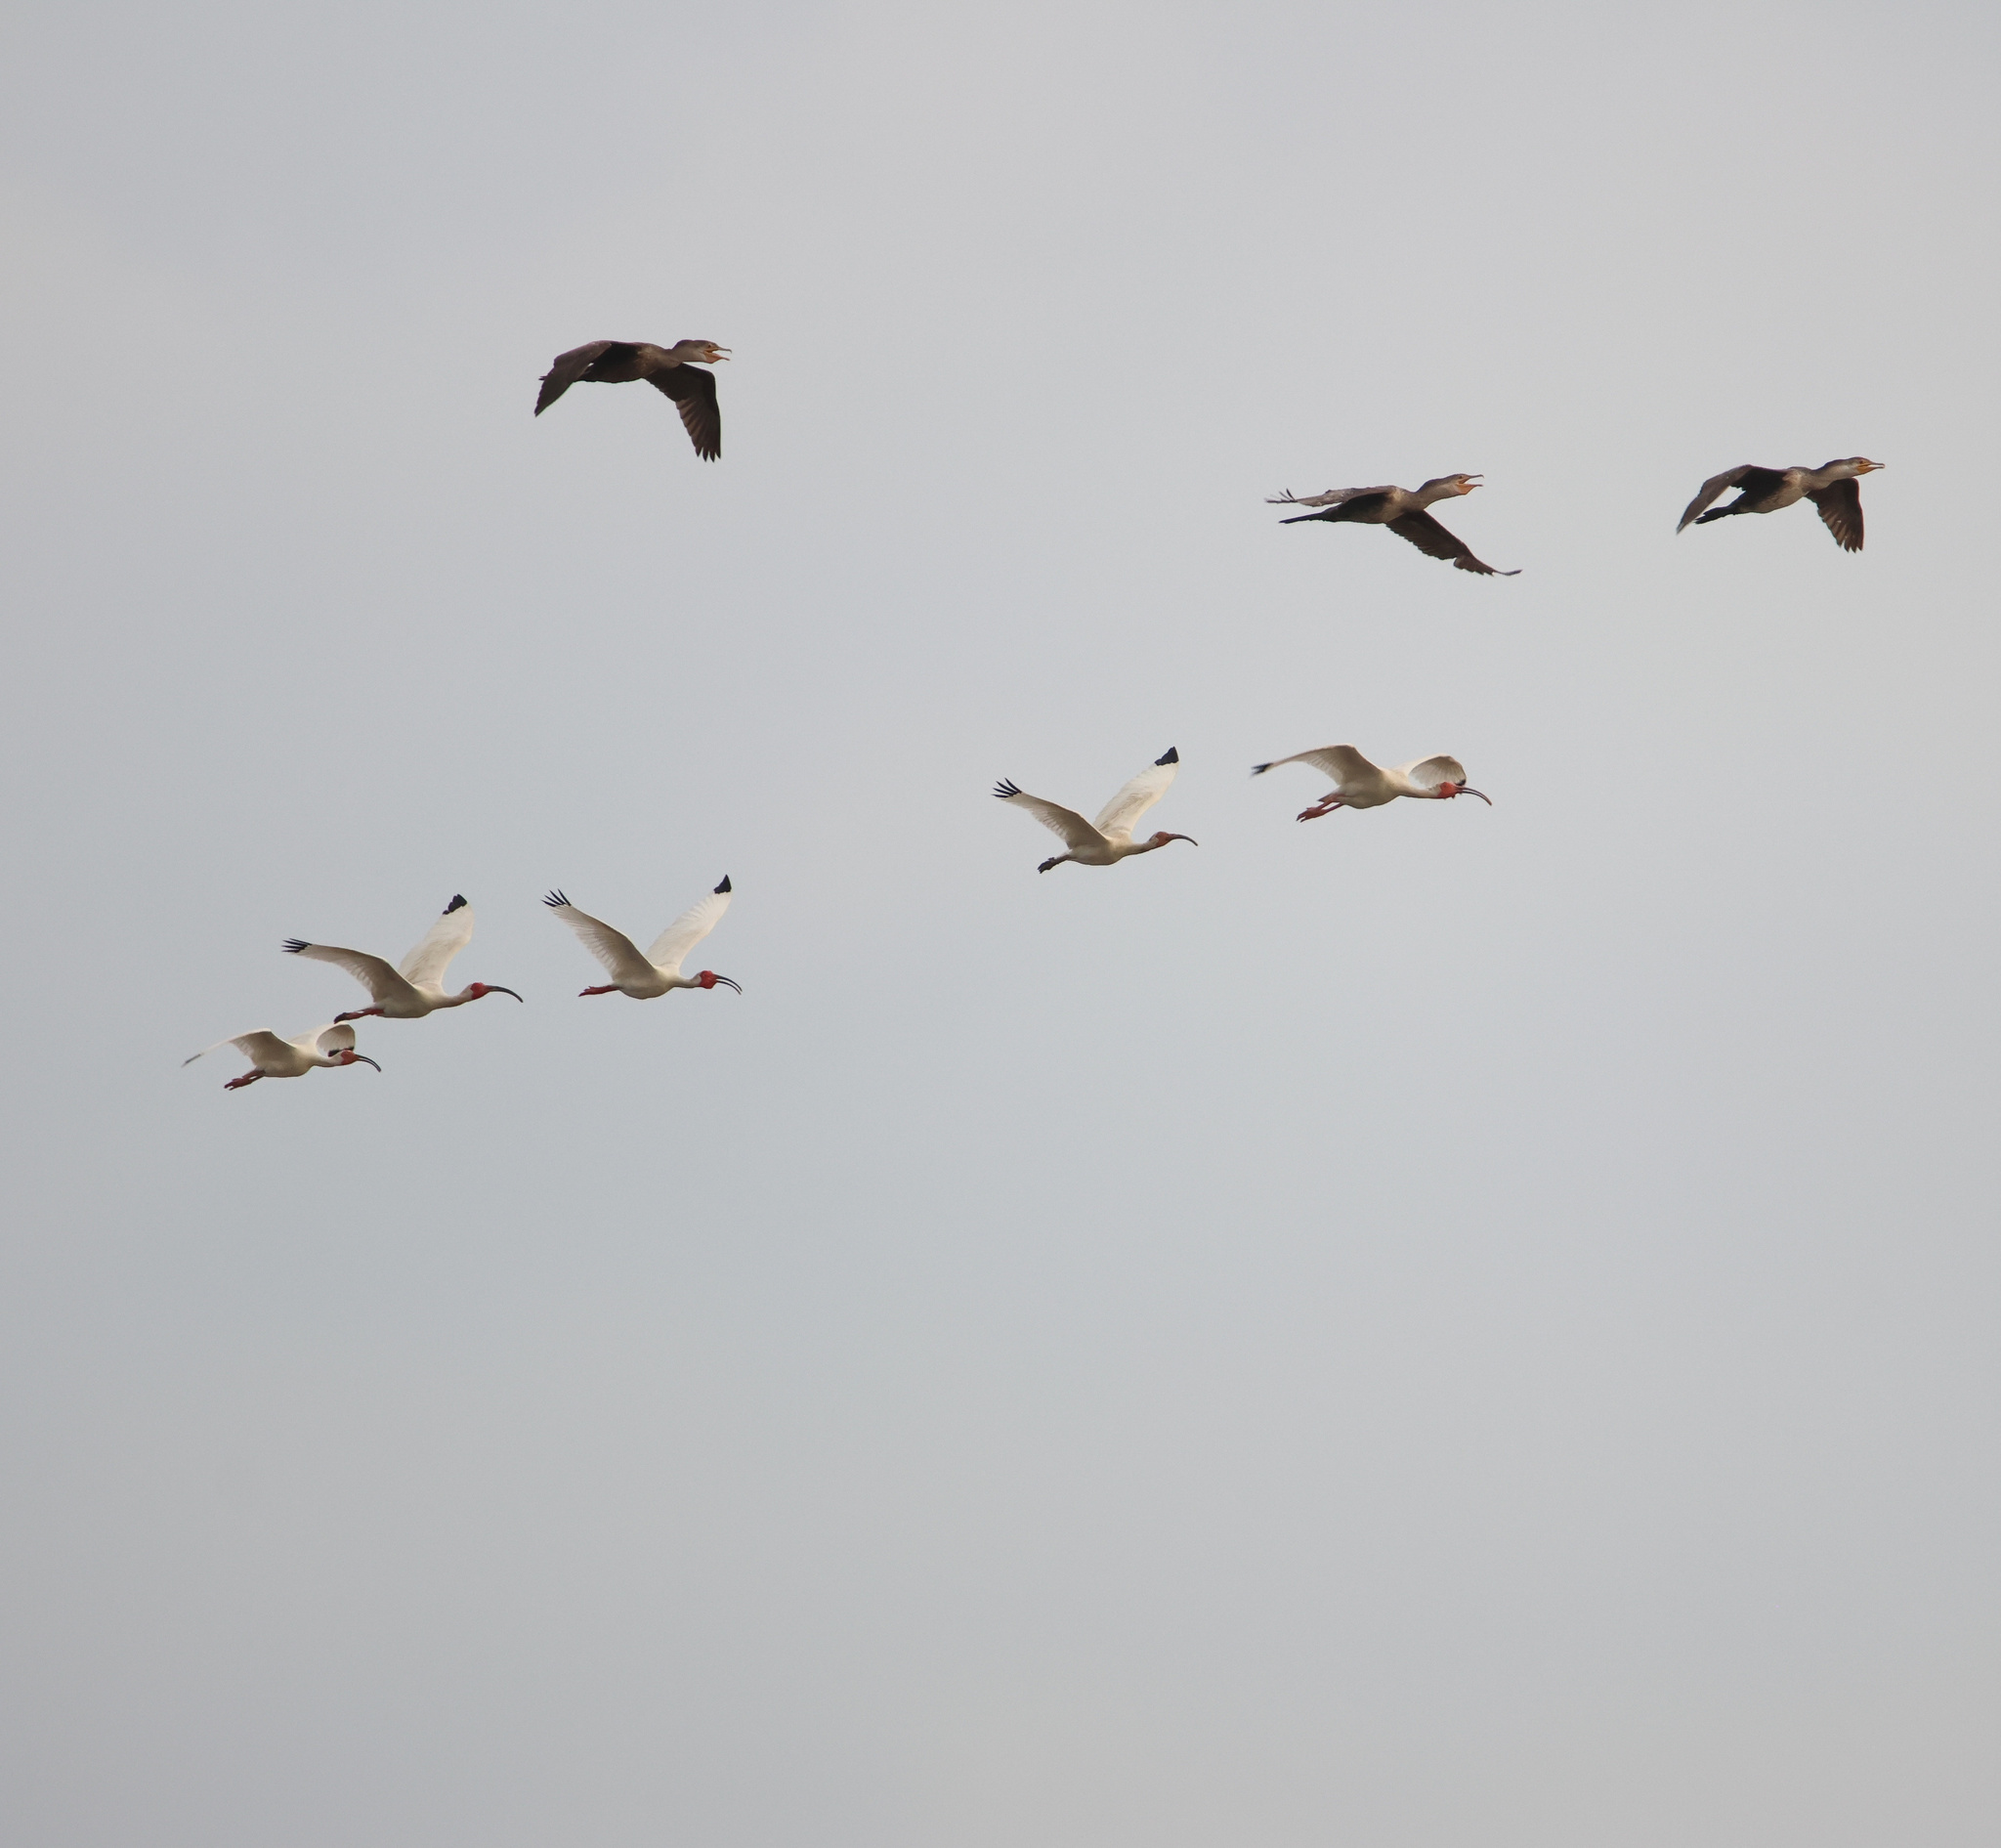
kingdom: Animalia
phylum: Chordata
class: Aves
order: Pelecaniformes
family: Threskiornithidae
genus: Eudocimus
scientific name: Eudocimus albus
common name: White ibis
